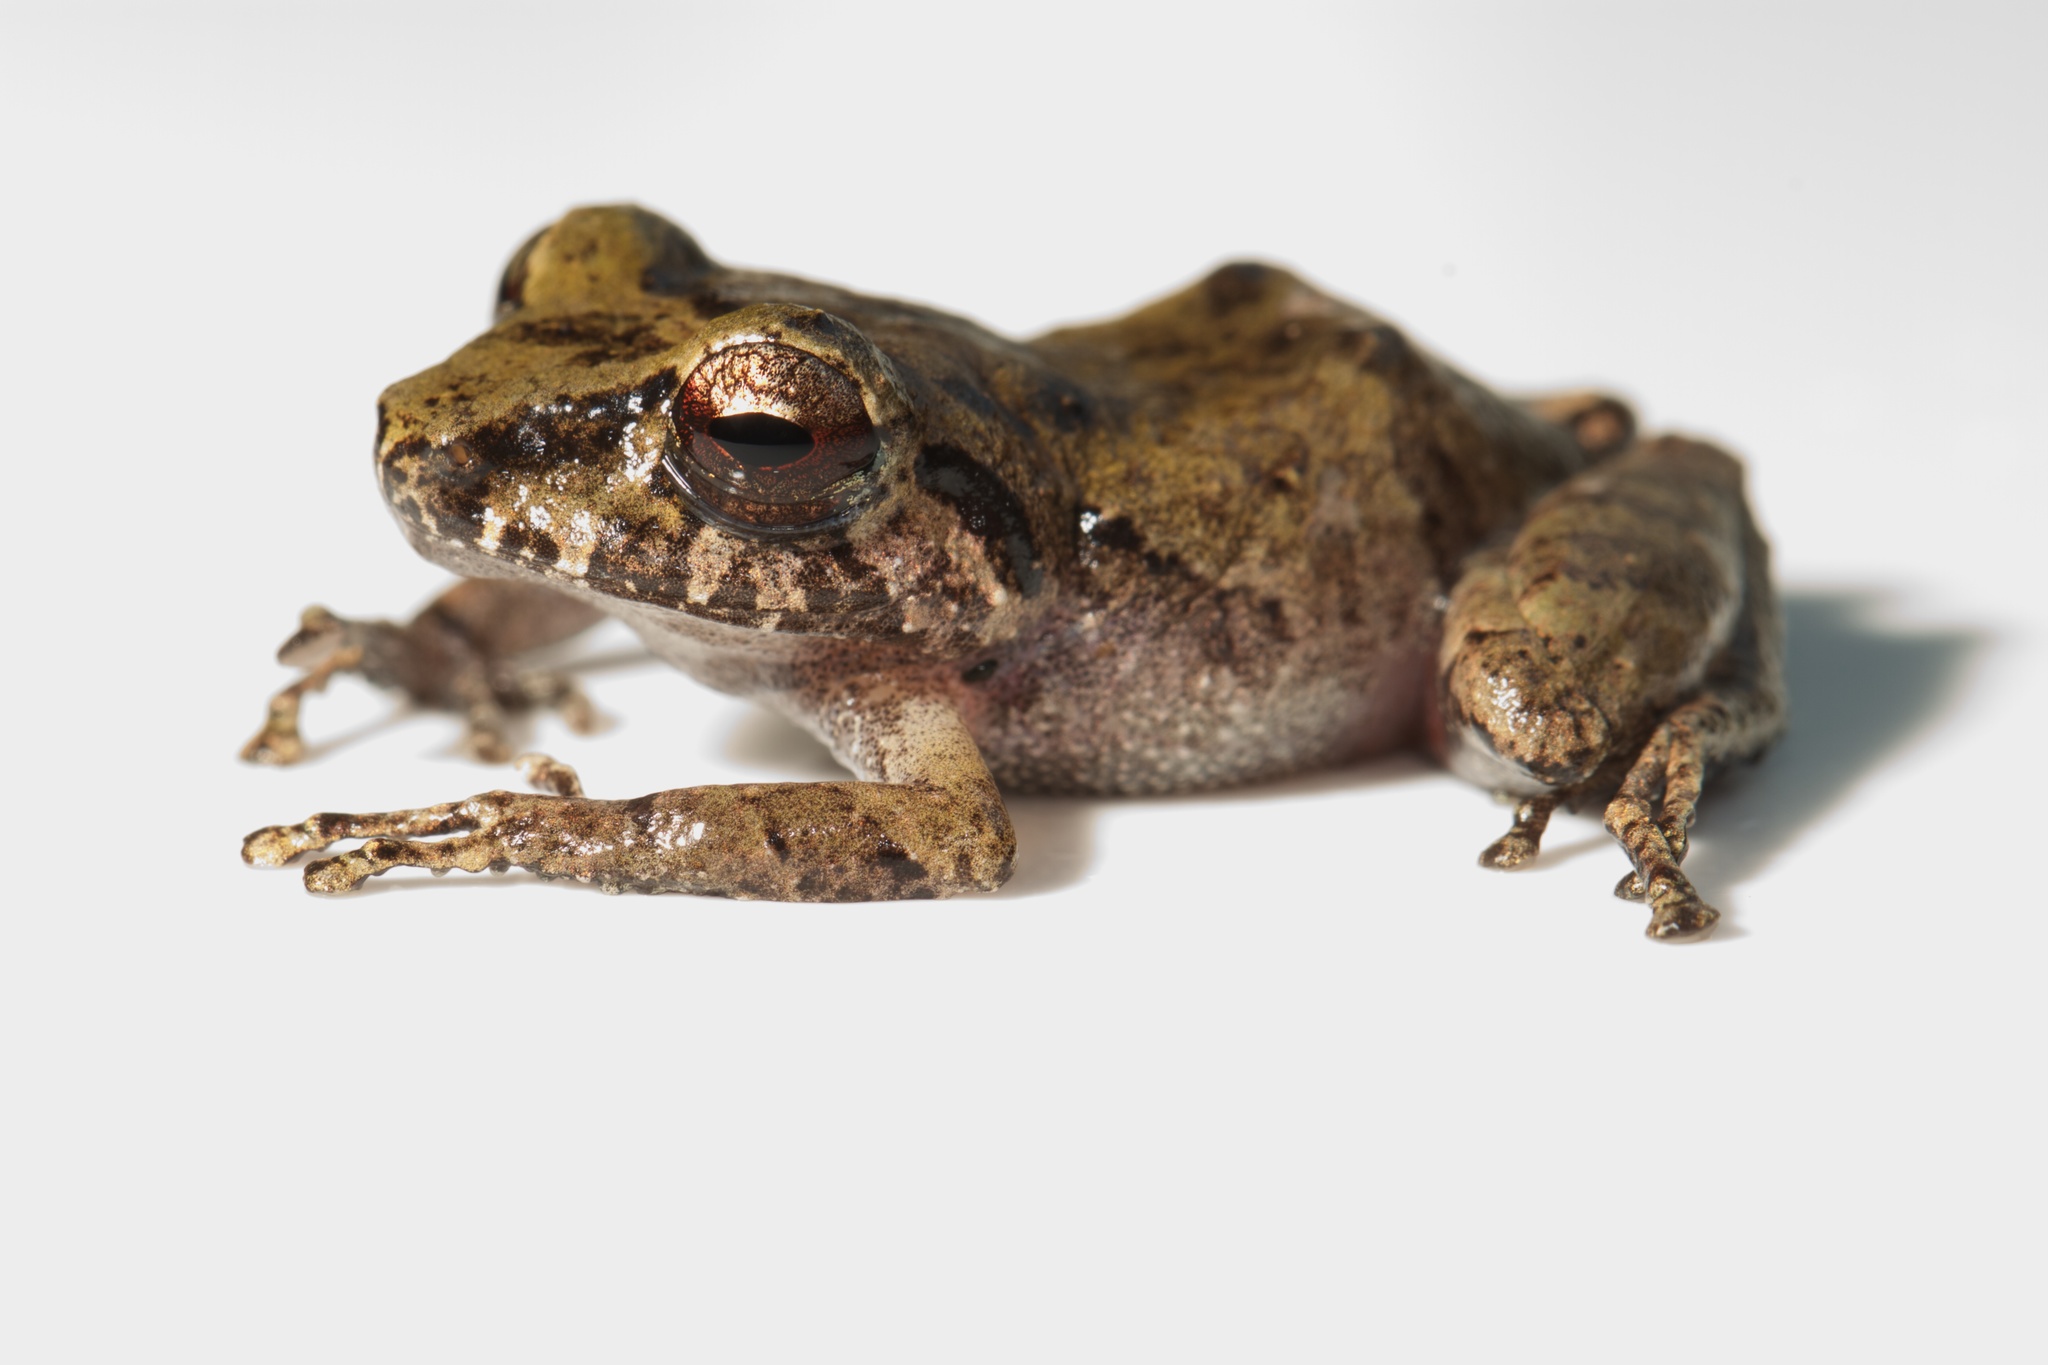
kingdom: Animalia
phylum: Chordata
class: Amphibia
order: Anura
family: Craugastoridae
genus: Pristimantis
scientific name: Pristimantis ridens
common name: Rio san juan robber frog
